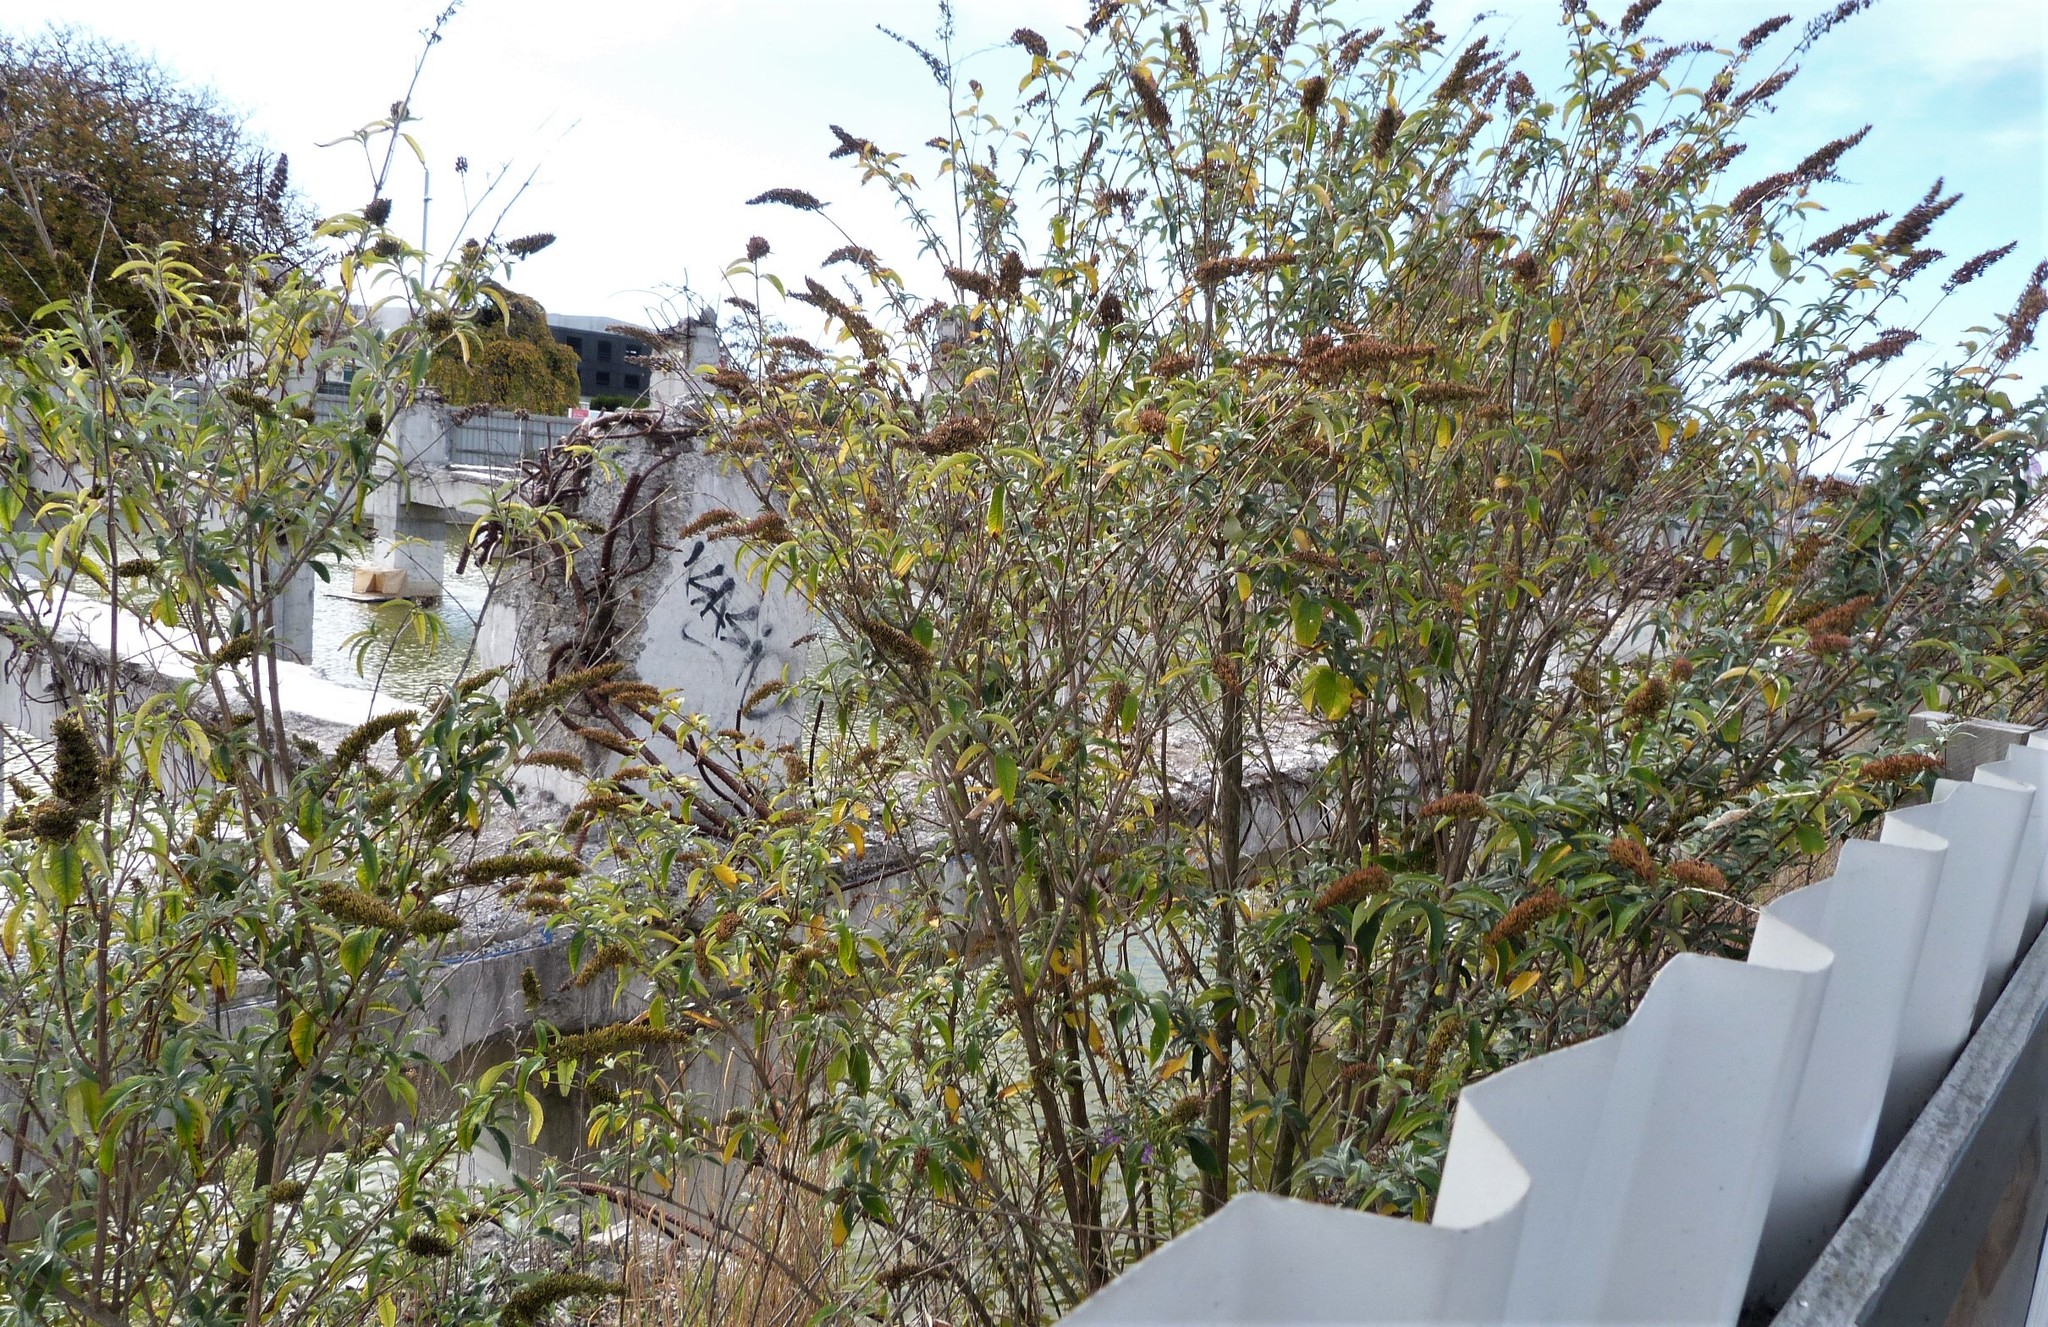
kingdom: Plantae
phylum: Tracheophyta
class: Magnoliopsida
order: Lamiales
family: Scrophulariaceae
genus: Buddleja
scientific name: Buddleja davidii
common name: Butterfly-bush
